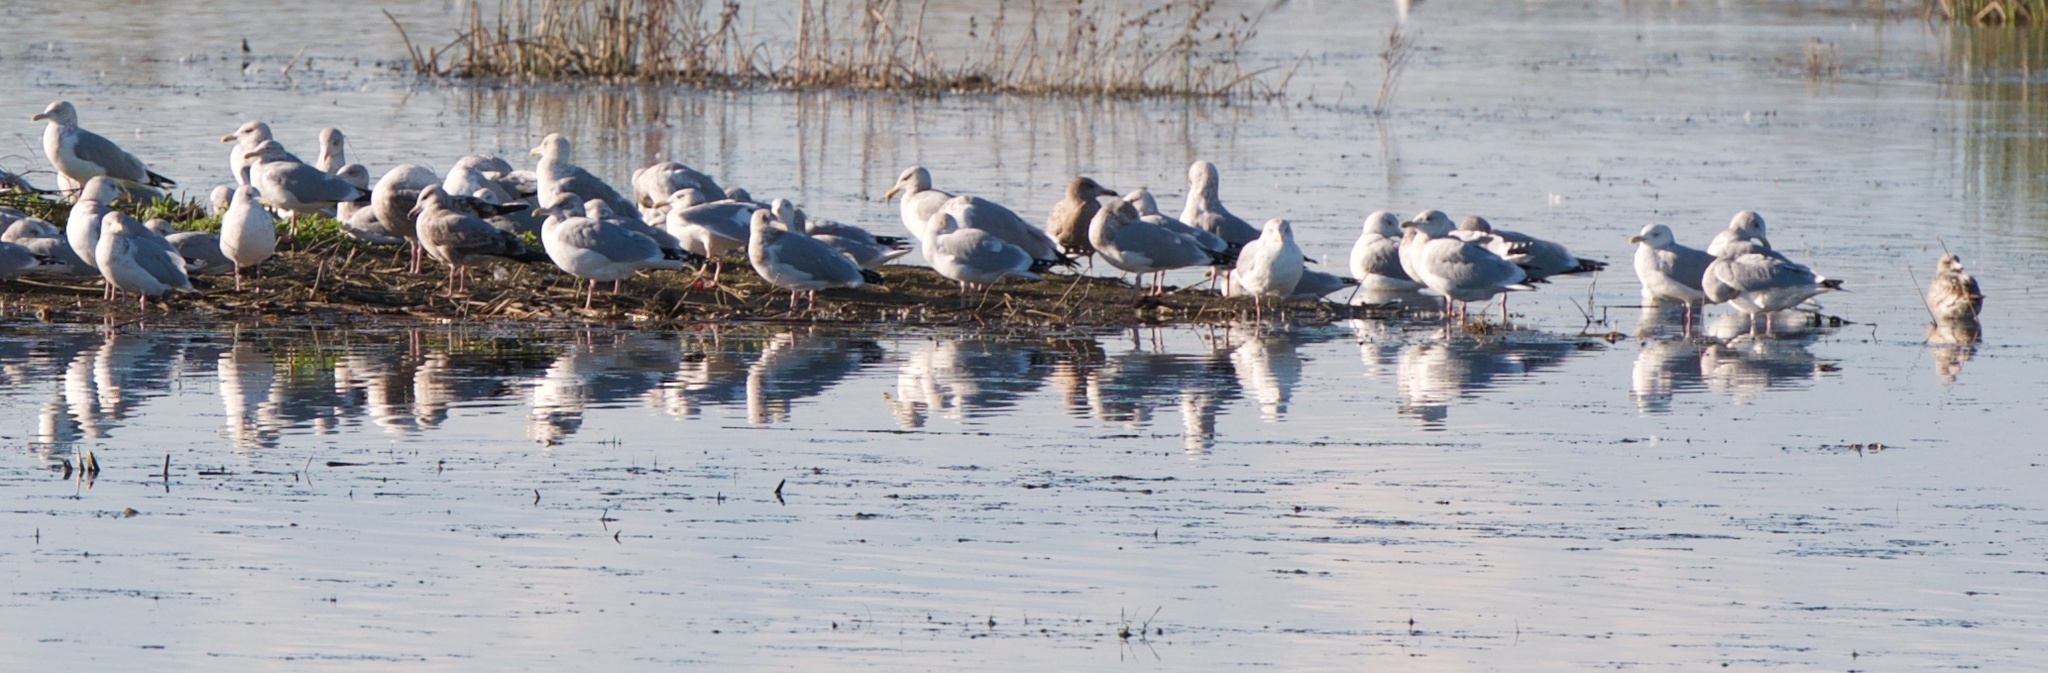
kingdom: Animalia
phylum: Chordata
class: Aves
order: Charadriiformes
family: Laridae
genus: Larus
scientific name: Larus argentatus
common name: Herring gull
